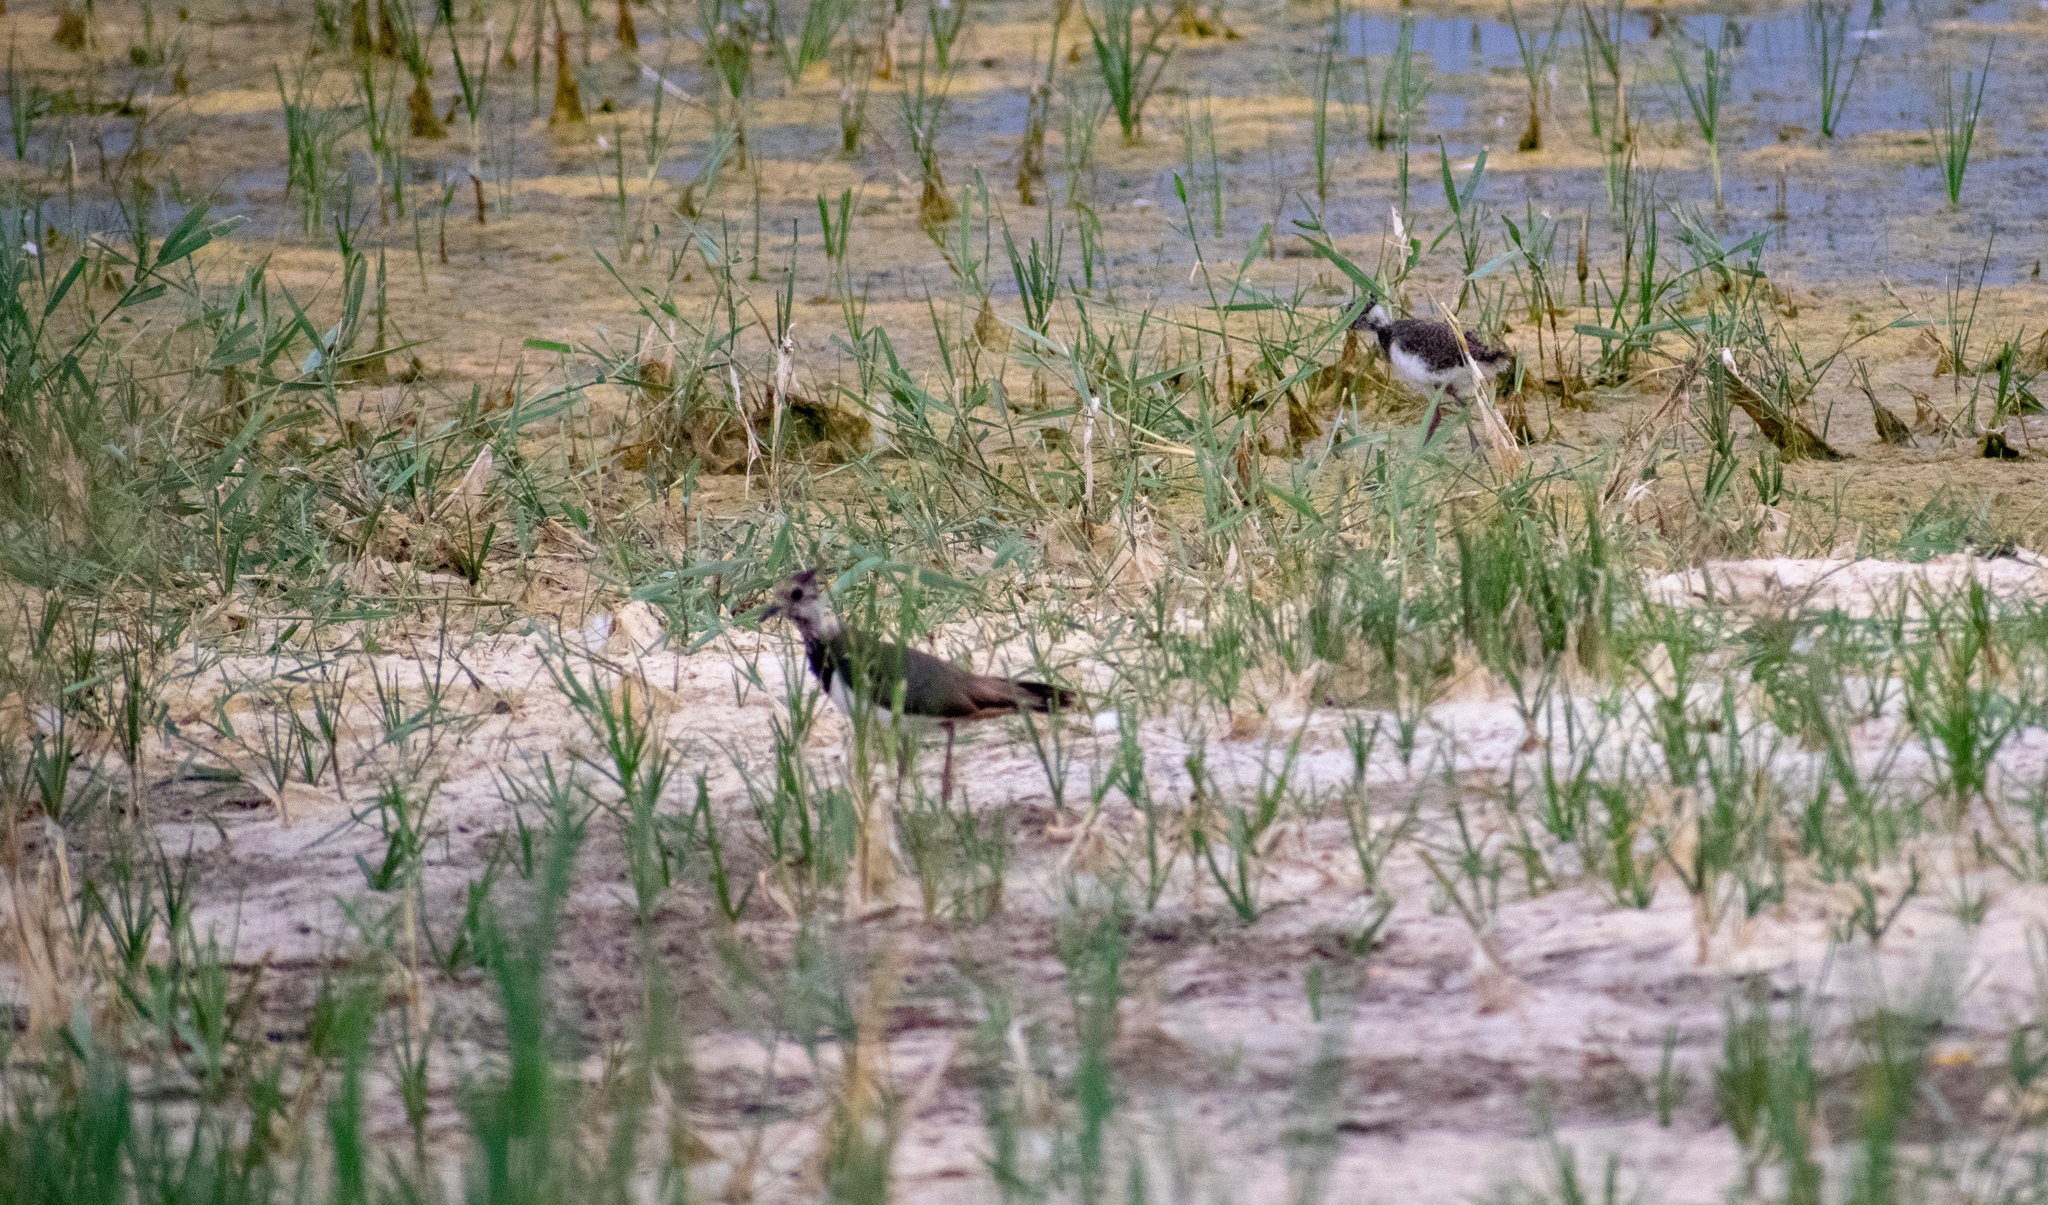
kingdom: Animalia
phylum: Chordata
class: Aves
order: Charadriiformes
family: Charadriidae
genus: Vanellus
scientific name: Vanellus vanellus
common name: Northern lapwing
